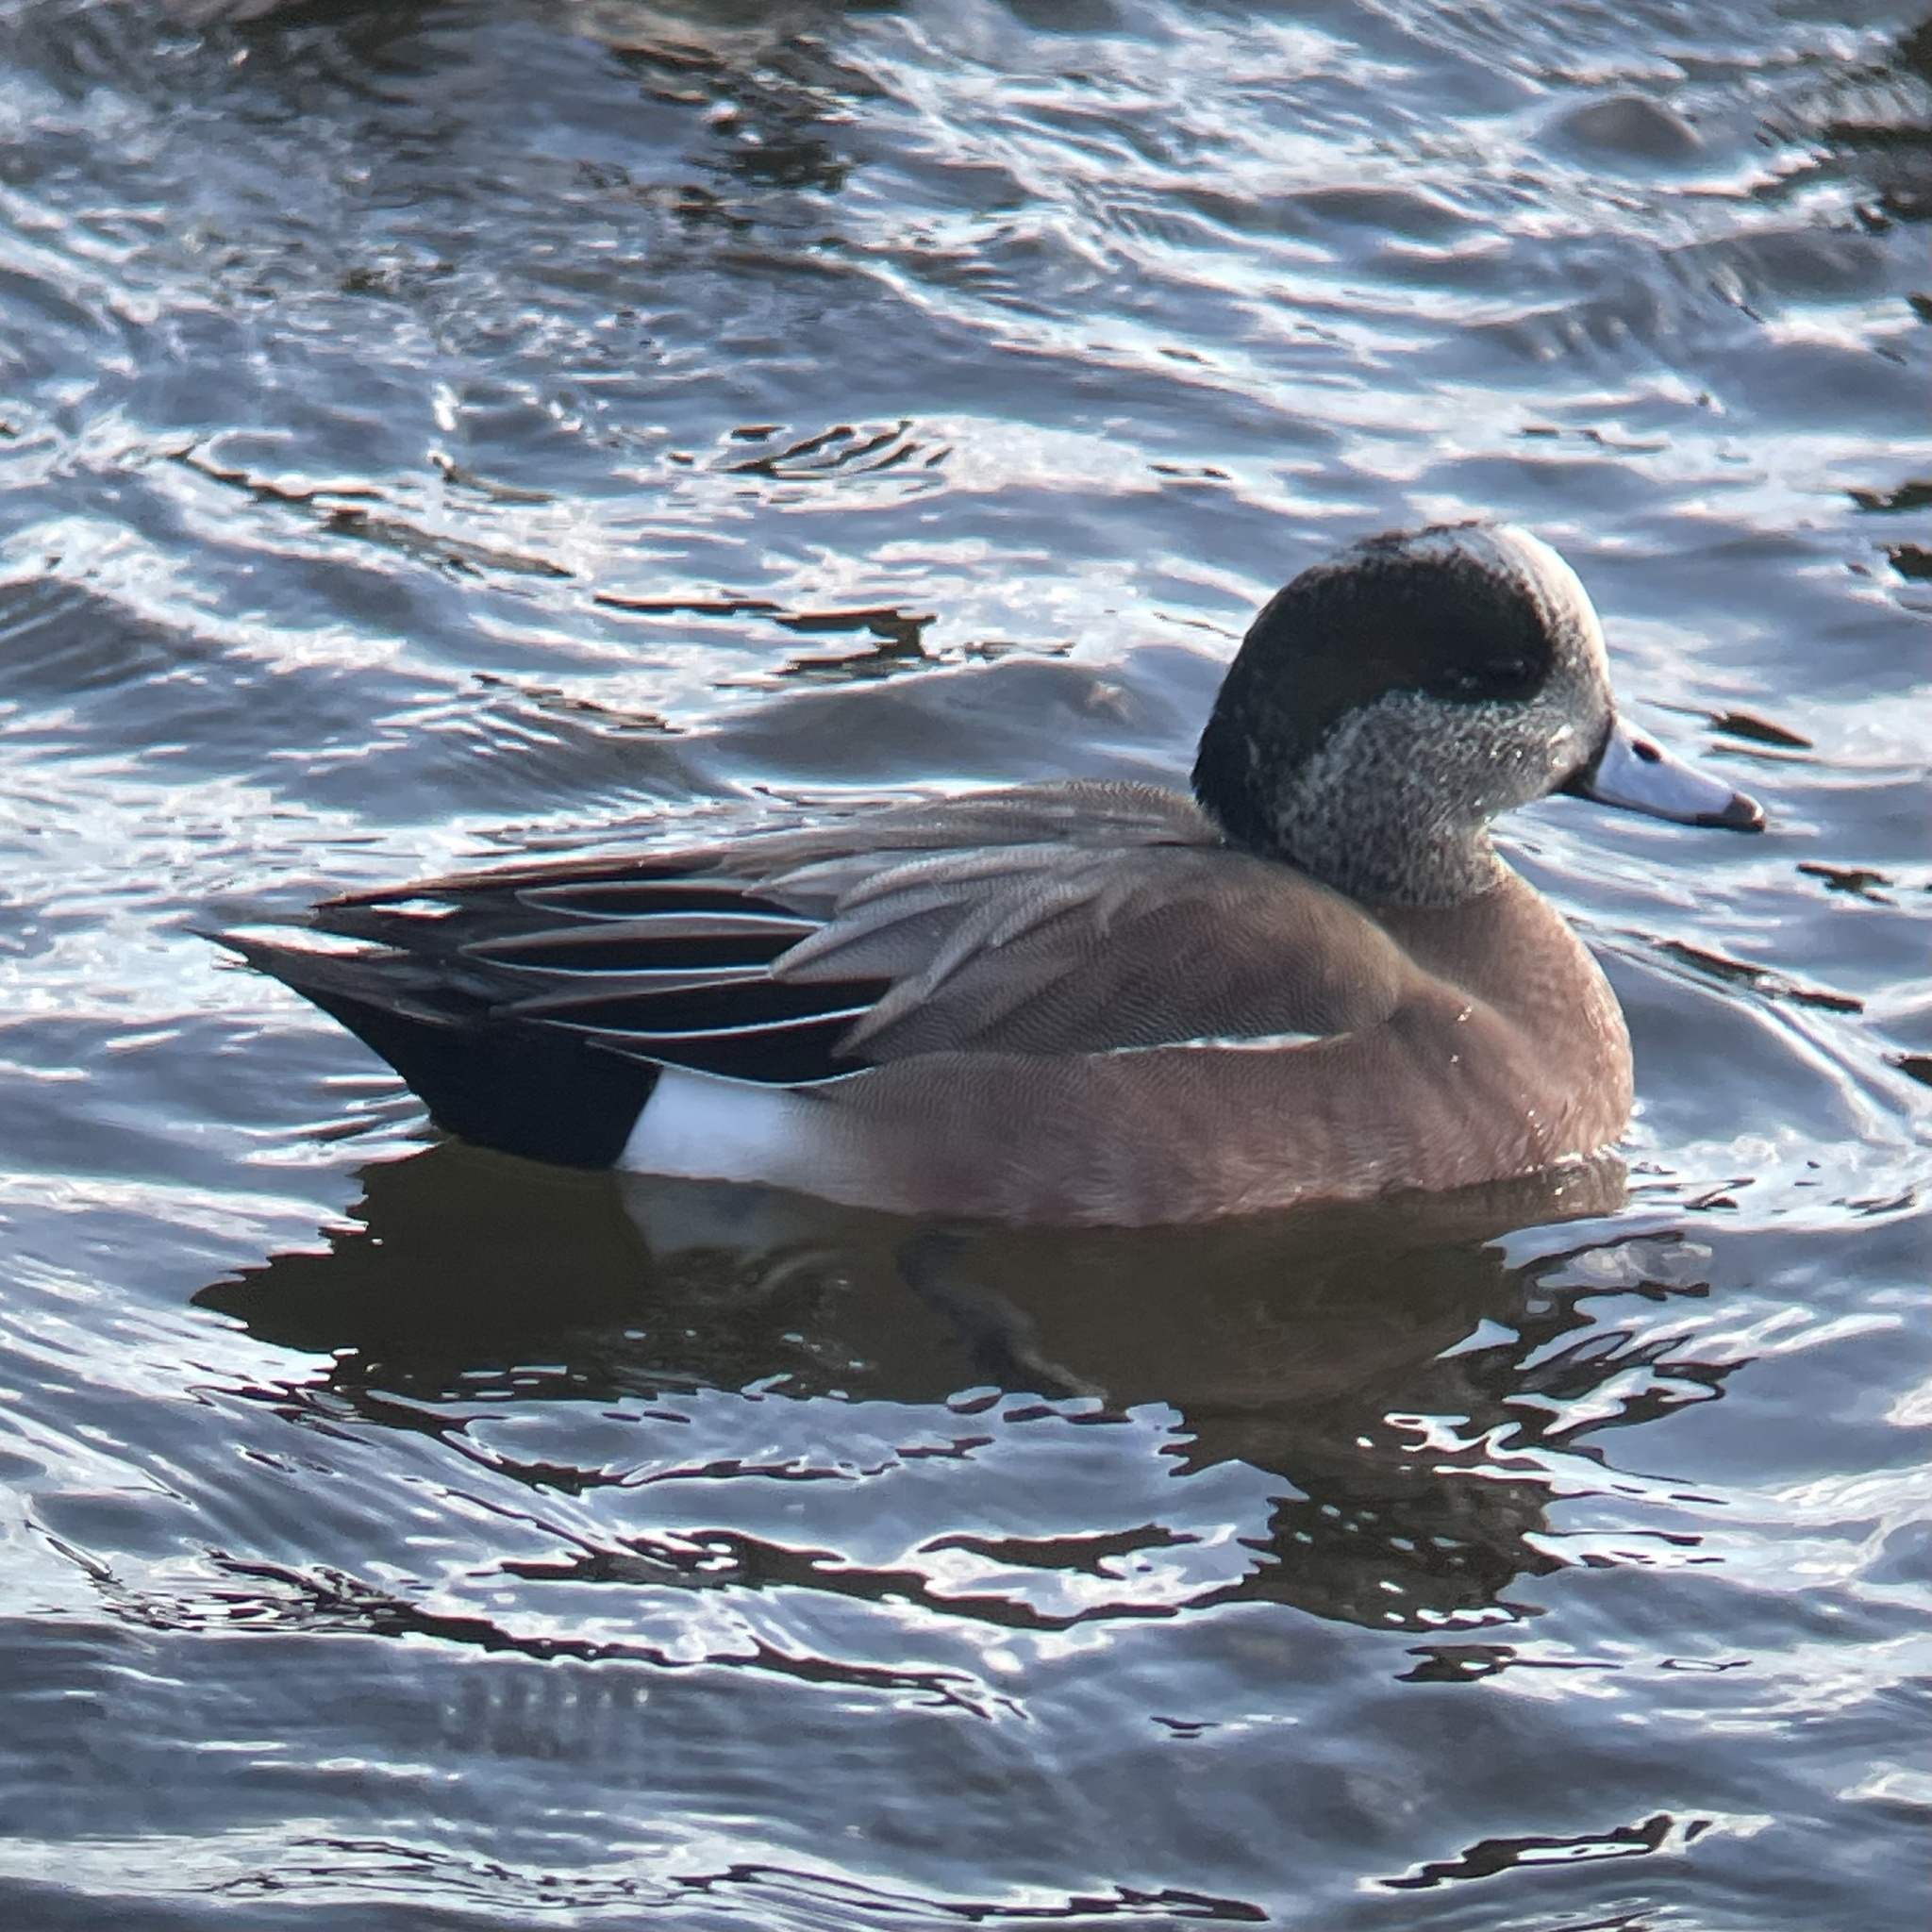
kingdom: Animalia
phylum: Chordata
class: Aves
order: Anseriformes
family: Anatidae
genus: Mareca
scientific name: Mareca americana
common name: American wigeon
